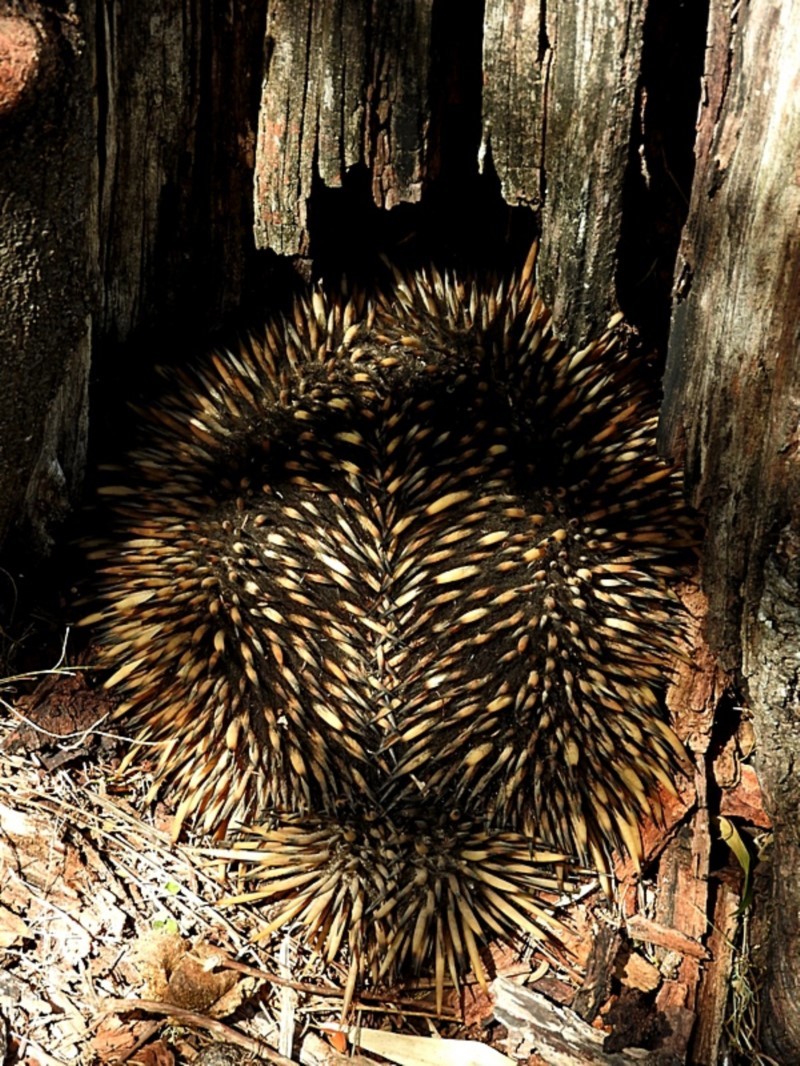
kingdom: Animalia
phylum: Chordata
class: Mammalia
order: Monotremata
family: Tachyglossidae
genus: Tachyglossus
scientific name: Tachyglossus aculeatus
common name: Short-beaked echidna
